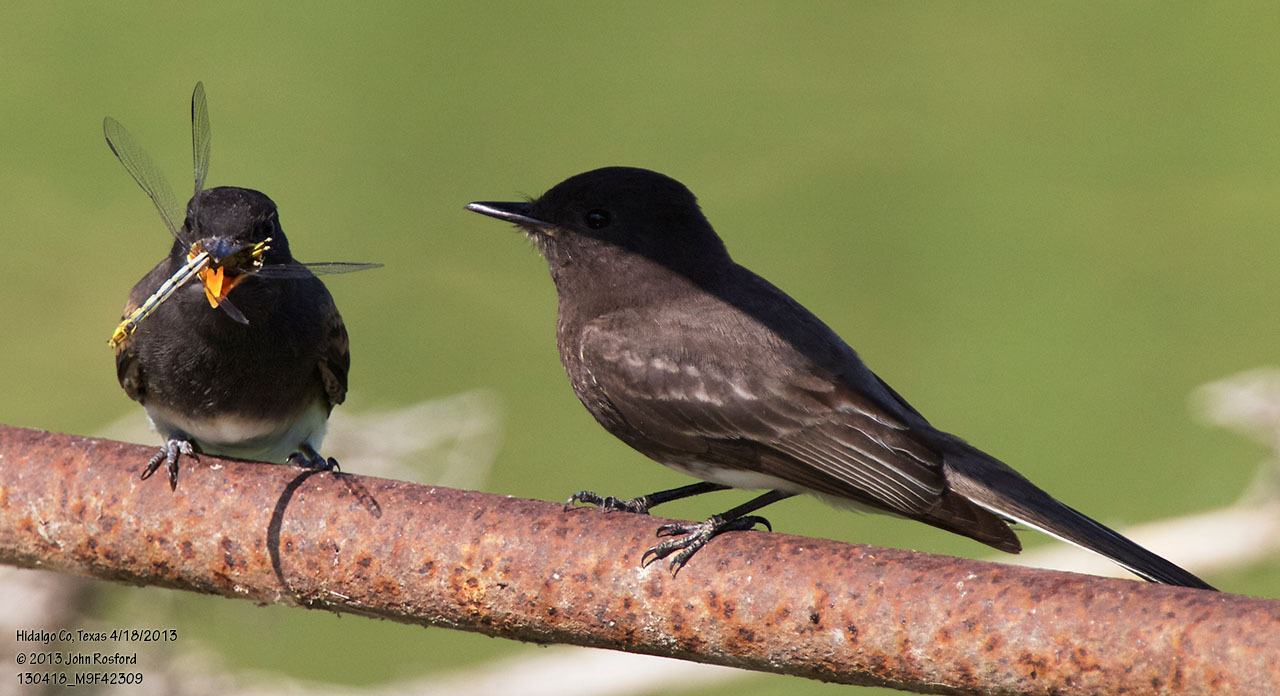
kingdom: Animalia
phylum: Chordata
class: Aves
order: Passeriformes
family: Tyrannidae
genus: Sayornis
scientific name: Sayornis nigricans
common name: Black phoebe
